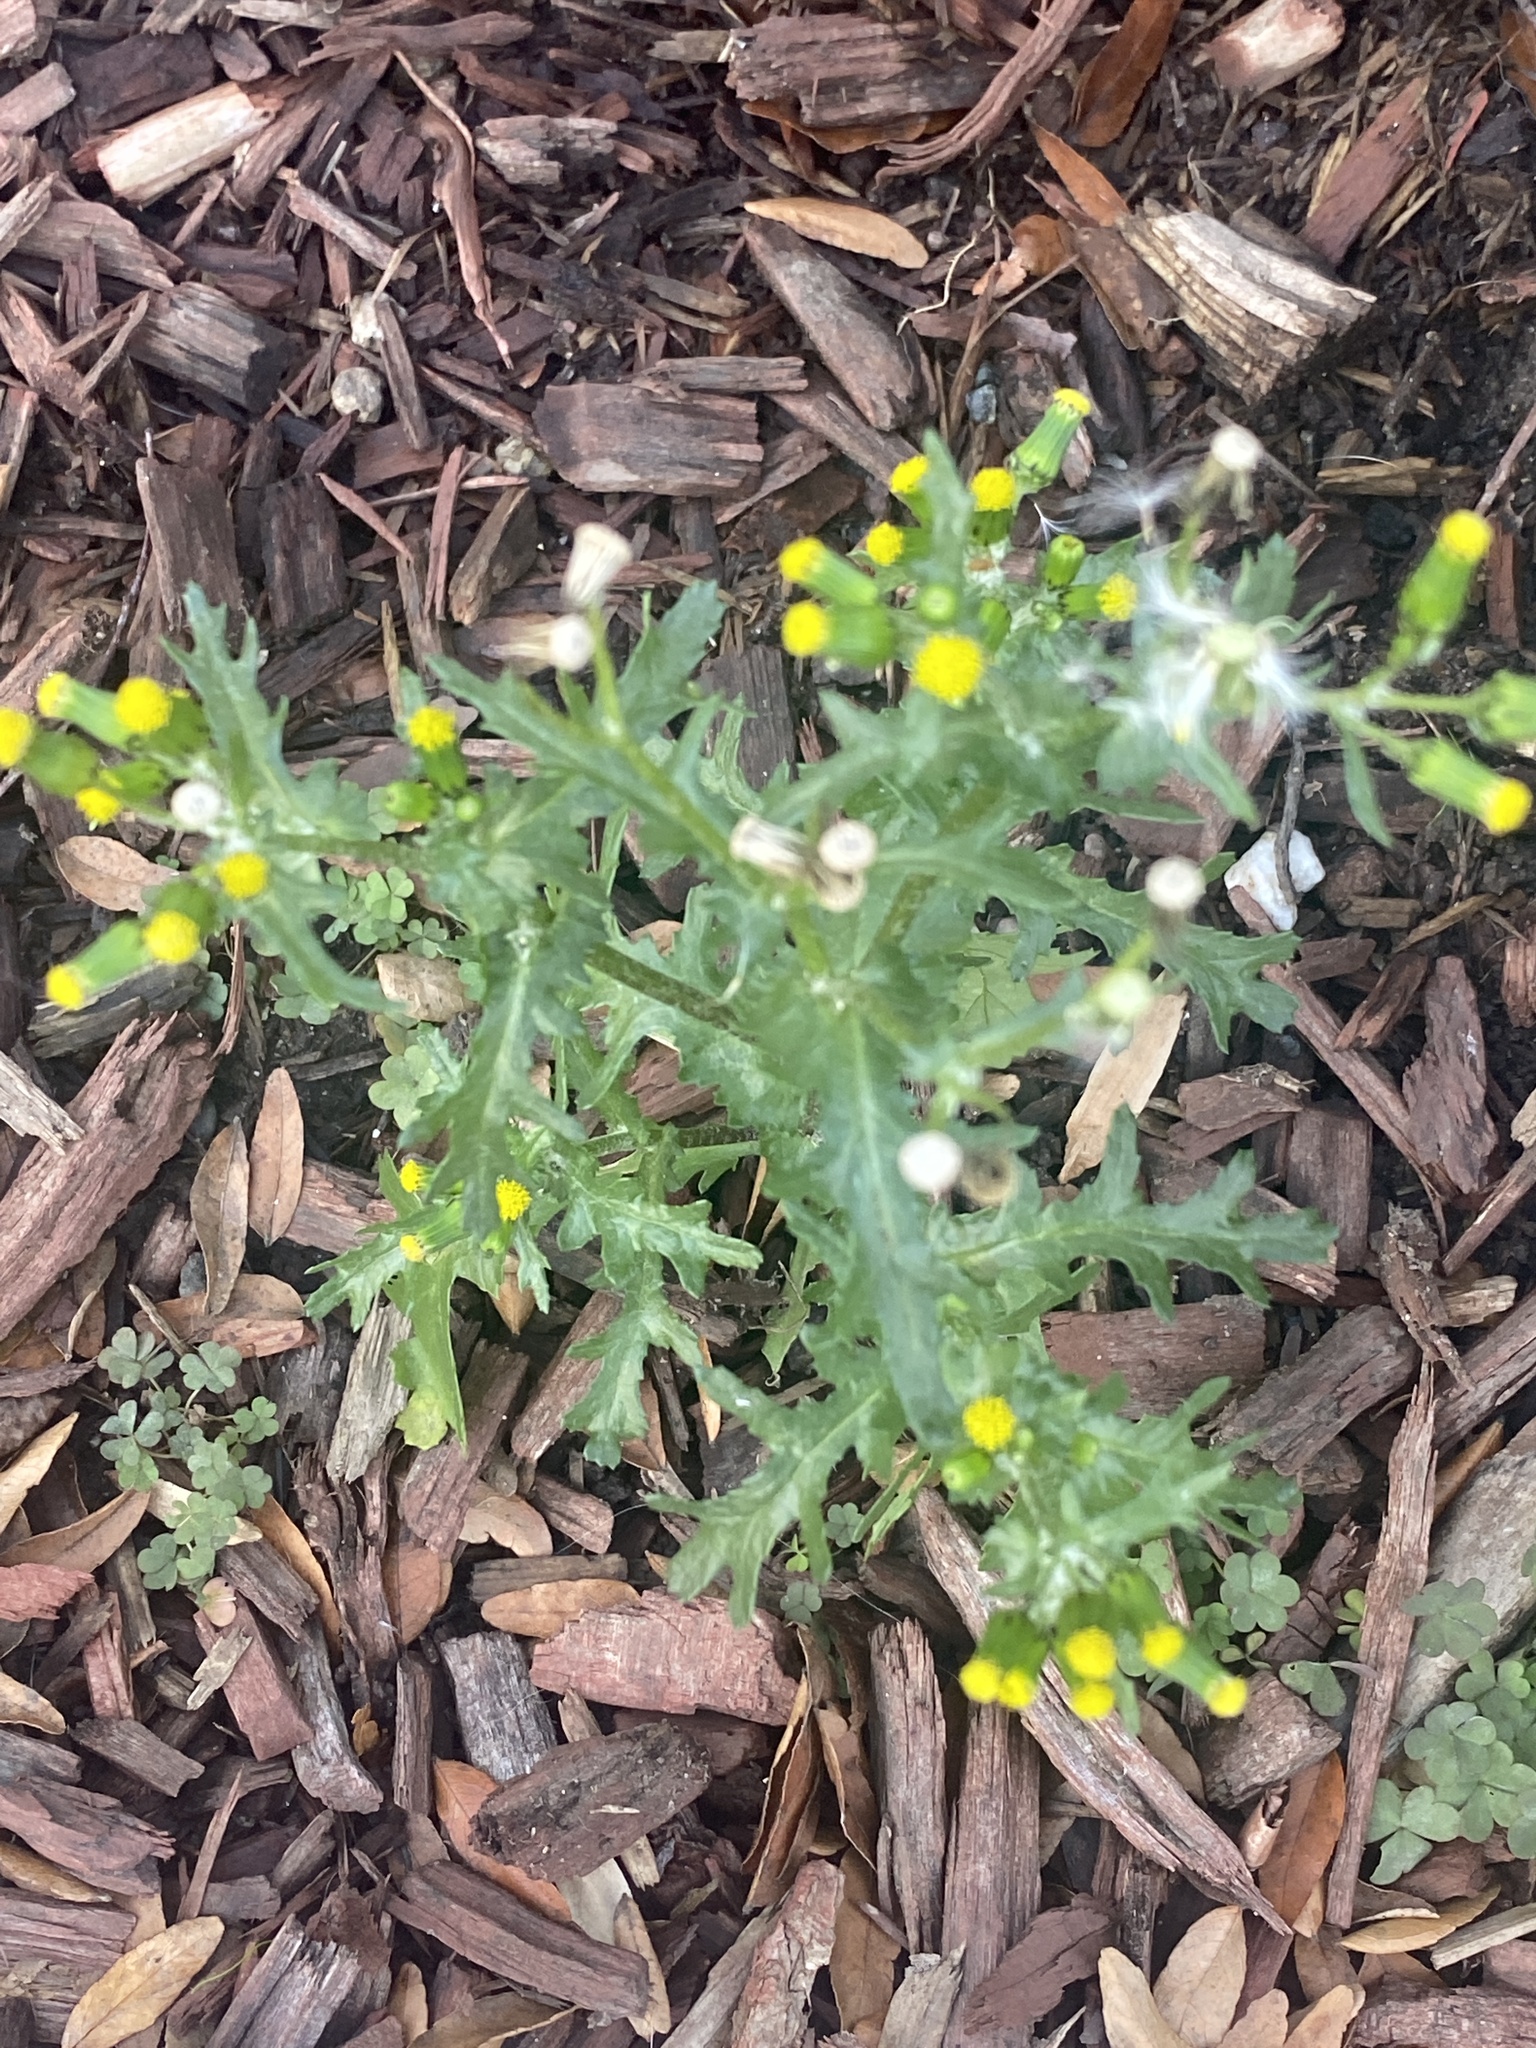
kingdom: Plantae
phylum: Tracheophyta
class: Magnoliopsida
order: Asterales
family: Asteraceae
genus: Senecio
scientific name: Senecio vulgaris
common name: Old-man-in-the-spring
